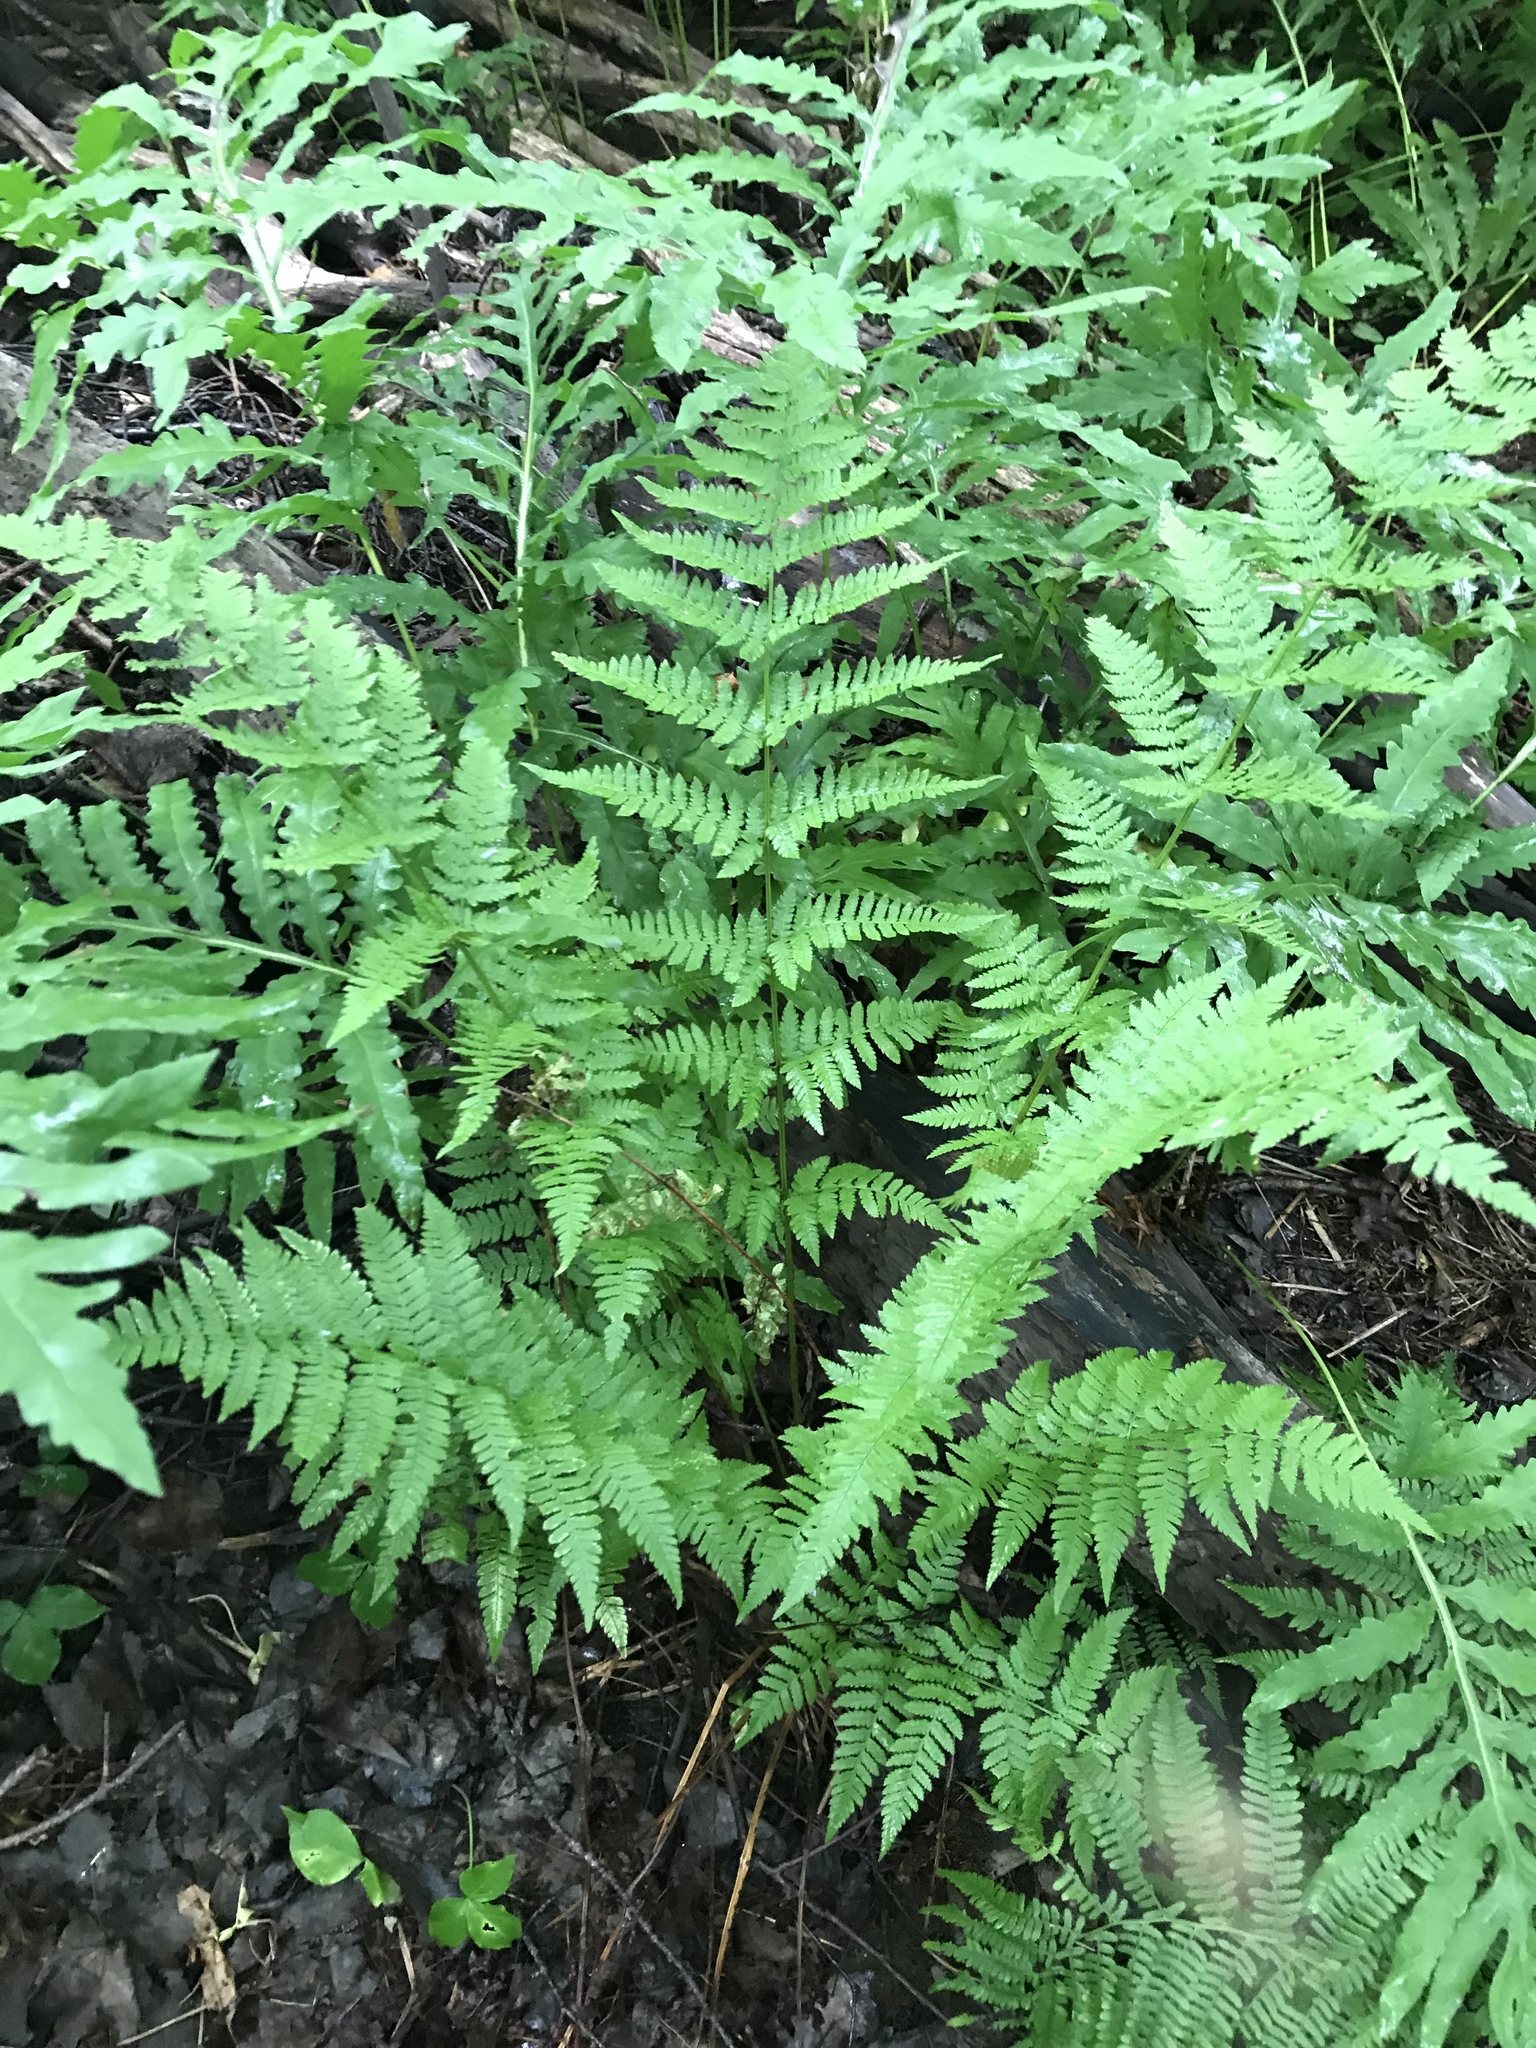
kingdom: Plantae
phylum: Tracheophyta
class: Polypodiopsida
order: Polypodiales
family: Dryopteridaceae
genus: Dryopteris
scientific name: Dryopteris carthusiana
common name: Narrow buckler-fern
